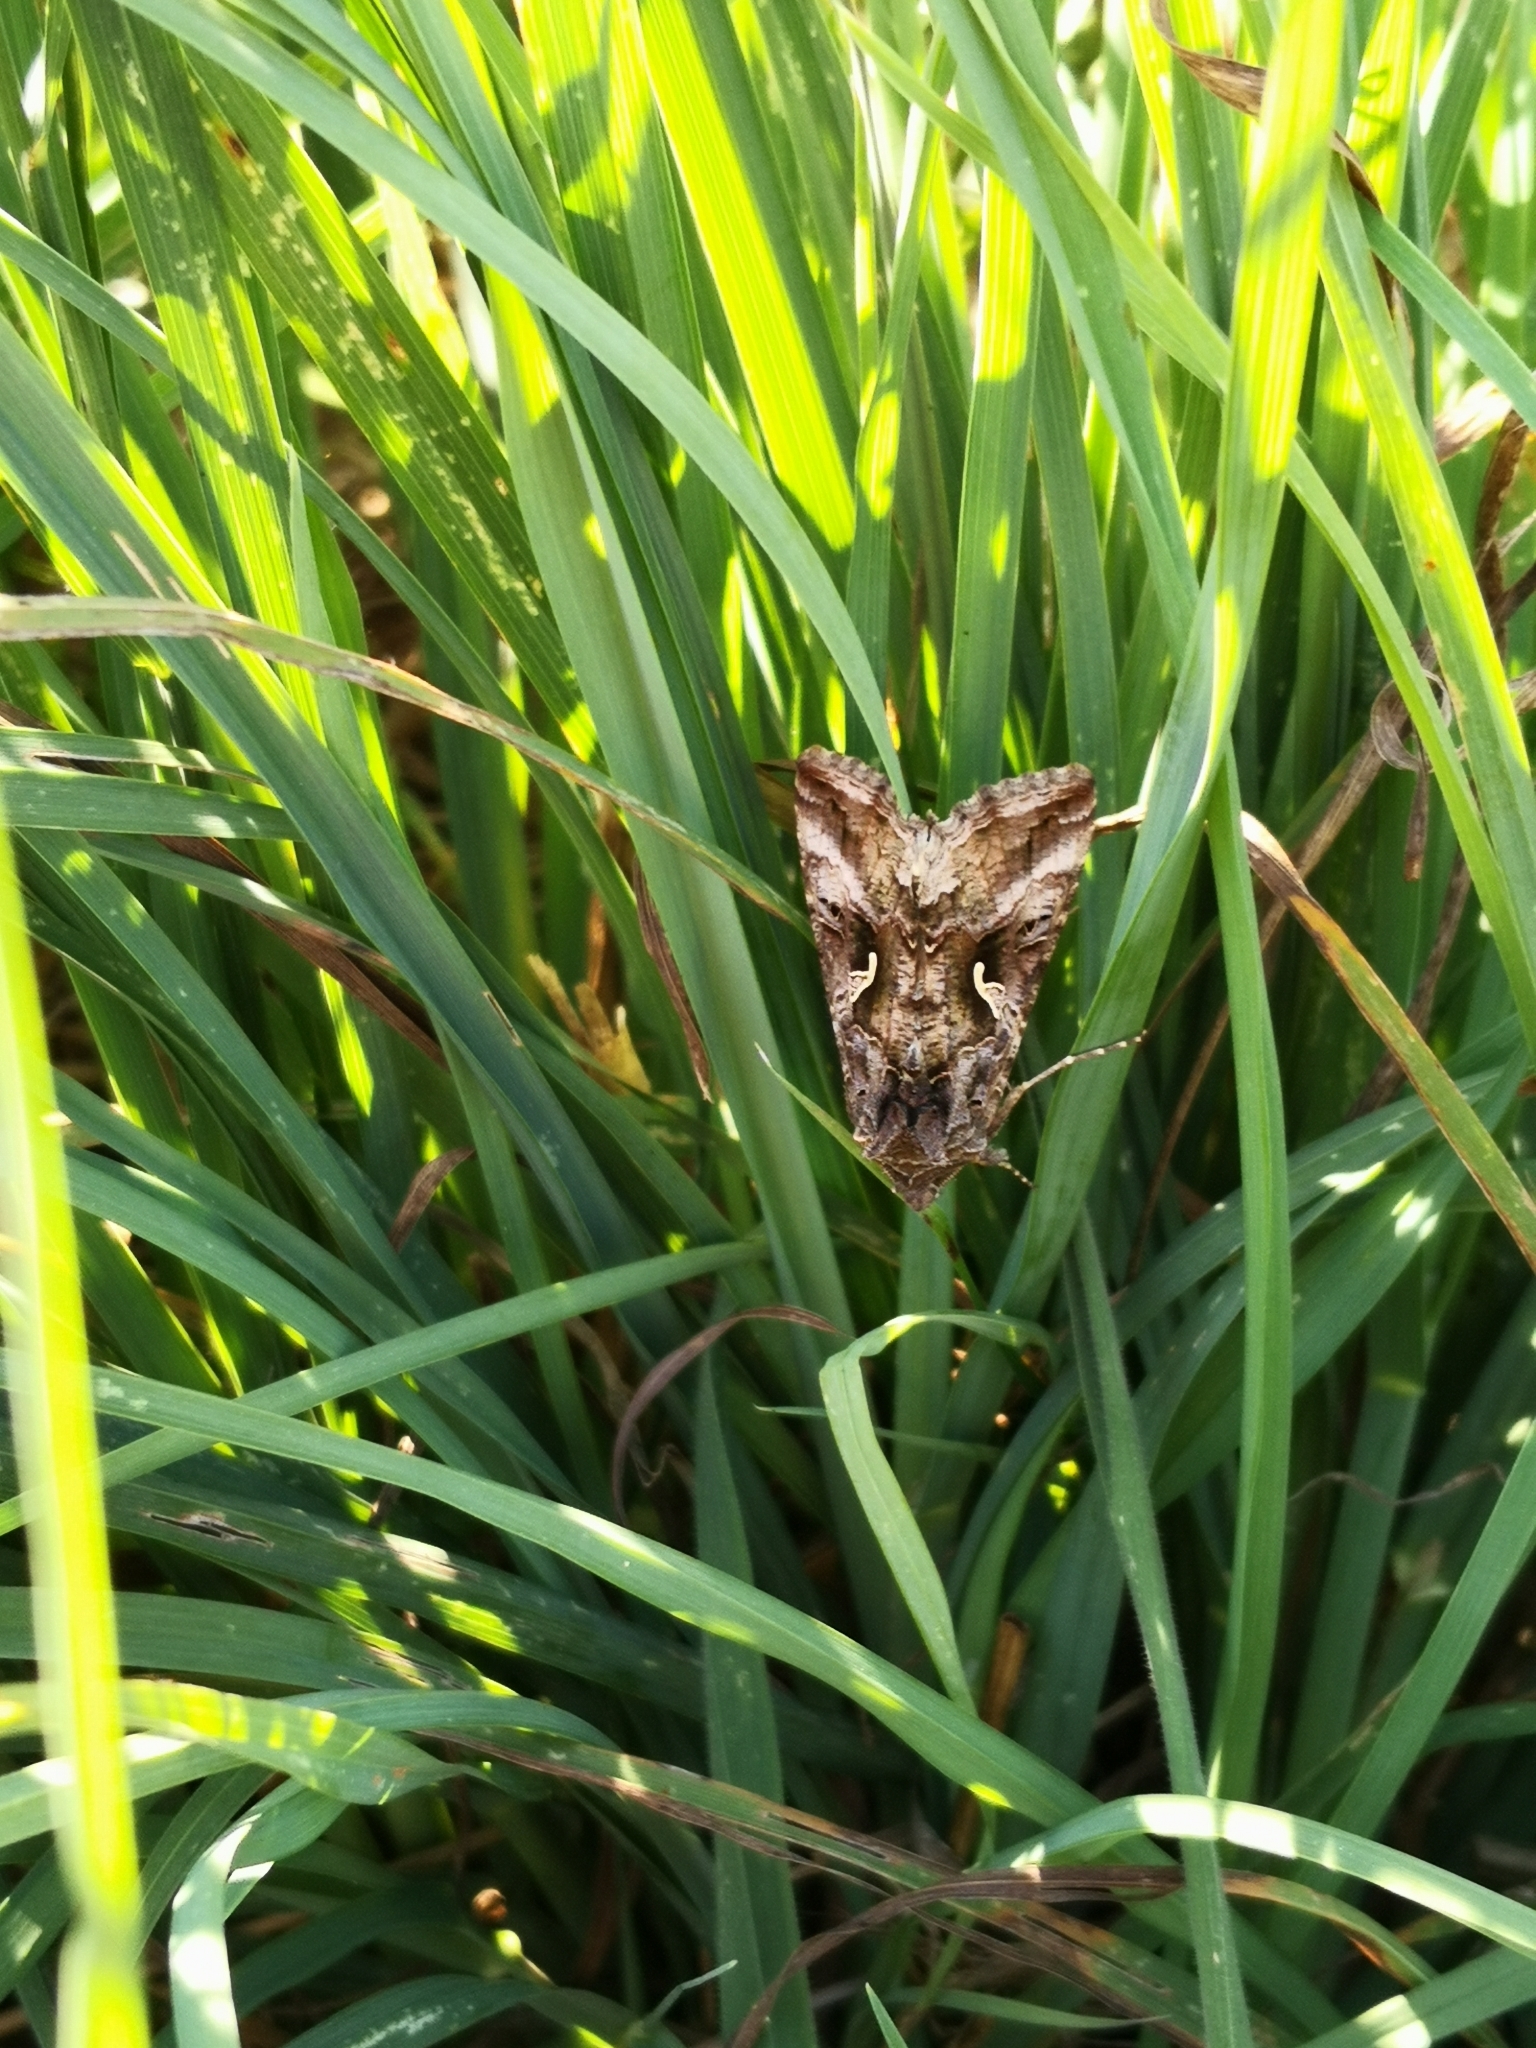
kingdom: Animalia
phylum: Arthropoda
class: Insecta
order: Lepidoptera
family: Noctuidae
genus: Autographa
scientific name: Autographa gamma
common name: Silver y
